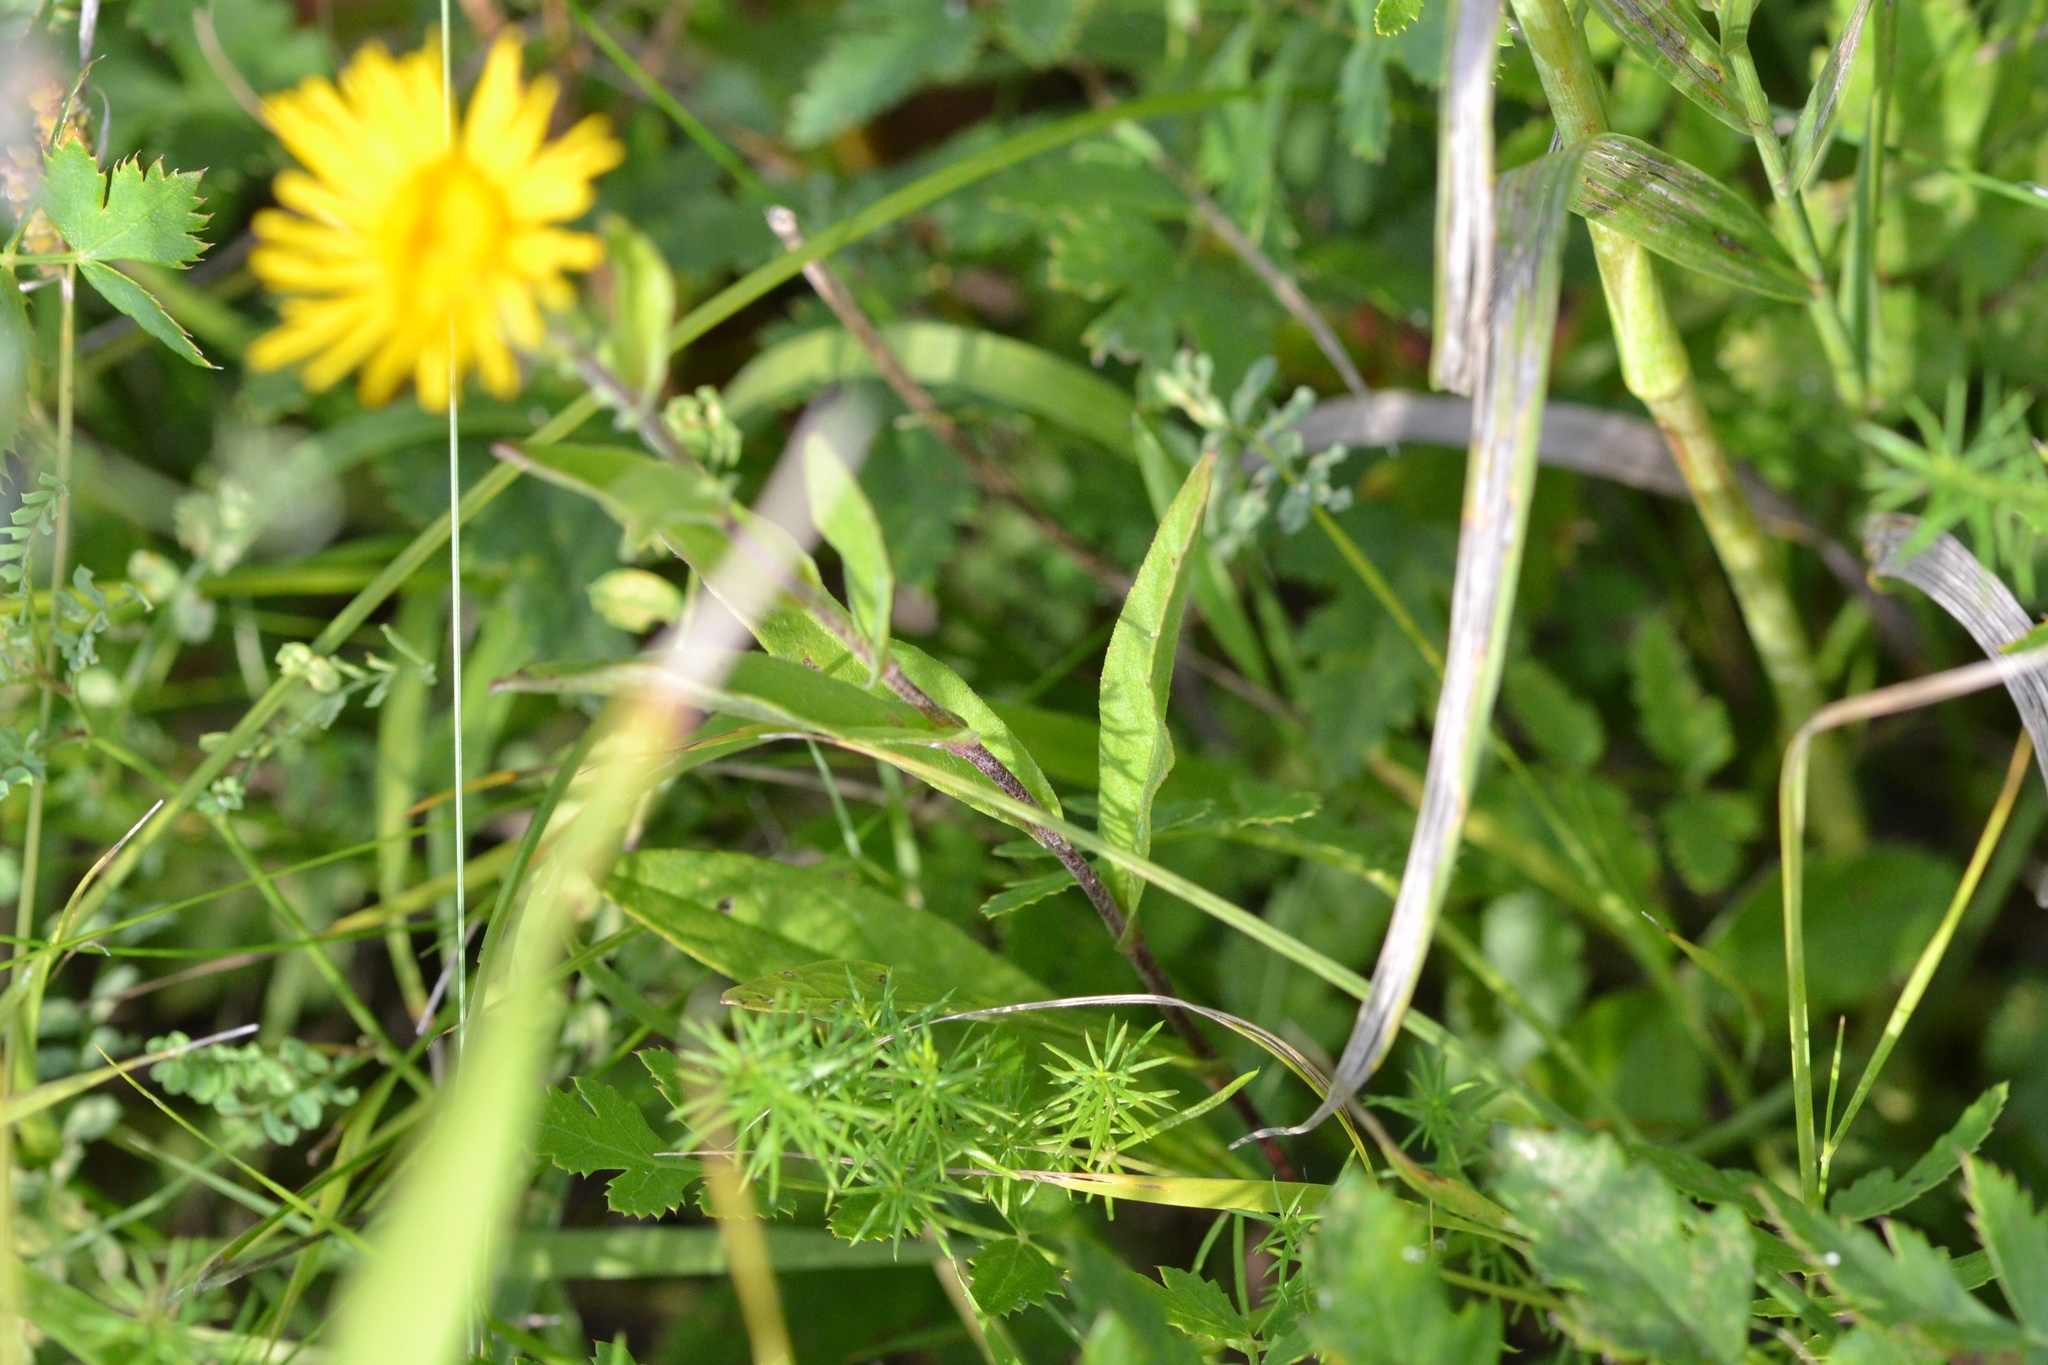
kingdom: Plantae
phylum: Tracheophyta
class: Magnoliopsida
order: Asterales
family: Asteraceae
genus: Pentanema
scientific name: Pentanema britannicum
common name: British elecampane
